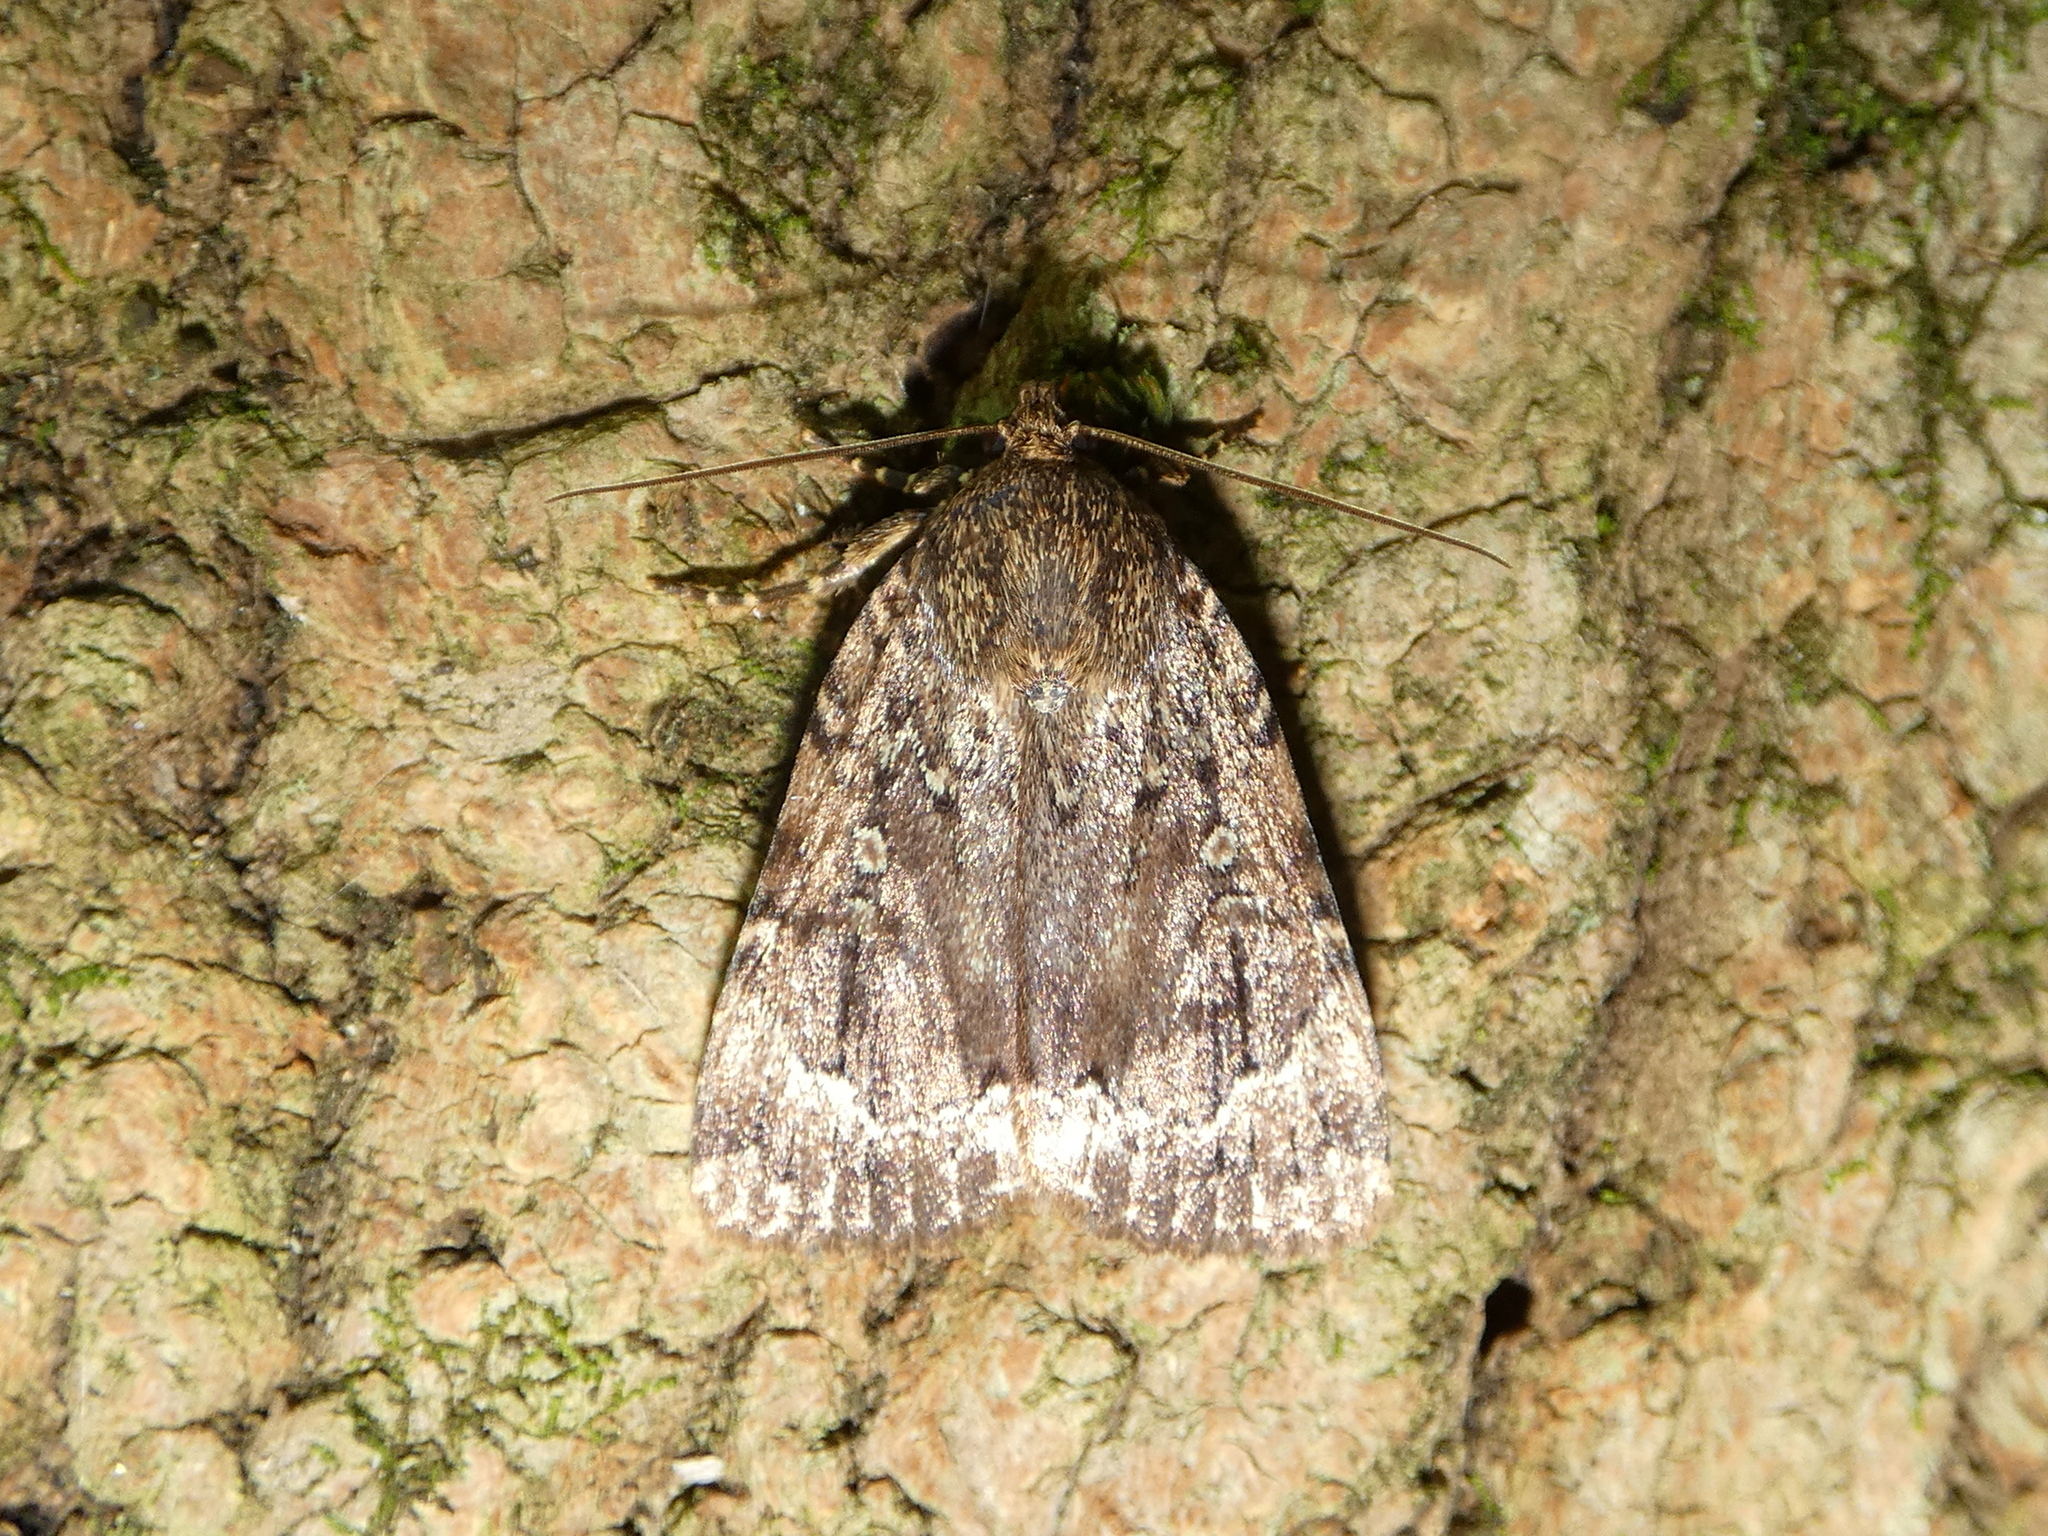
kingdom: Animalia
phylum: Arthropoda
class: Insecta
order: Lepidoptera
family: Noctuidae
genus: Amphipyra
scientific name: Amphipyra pyramidoides
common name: American copper underwing
